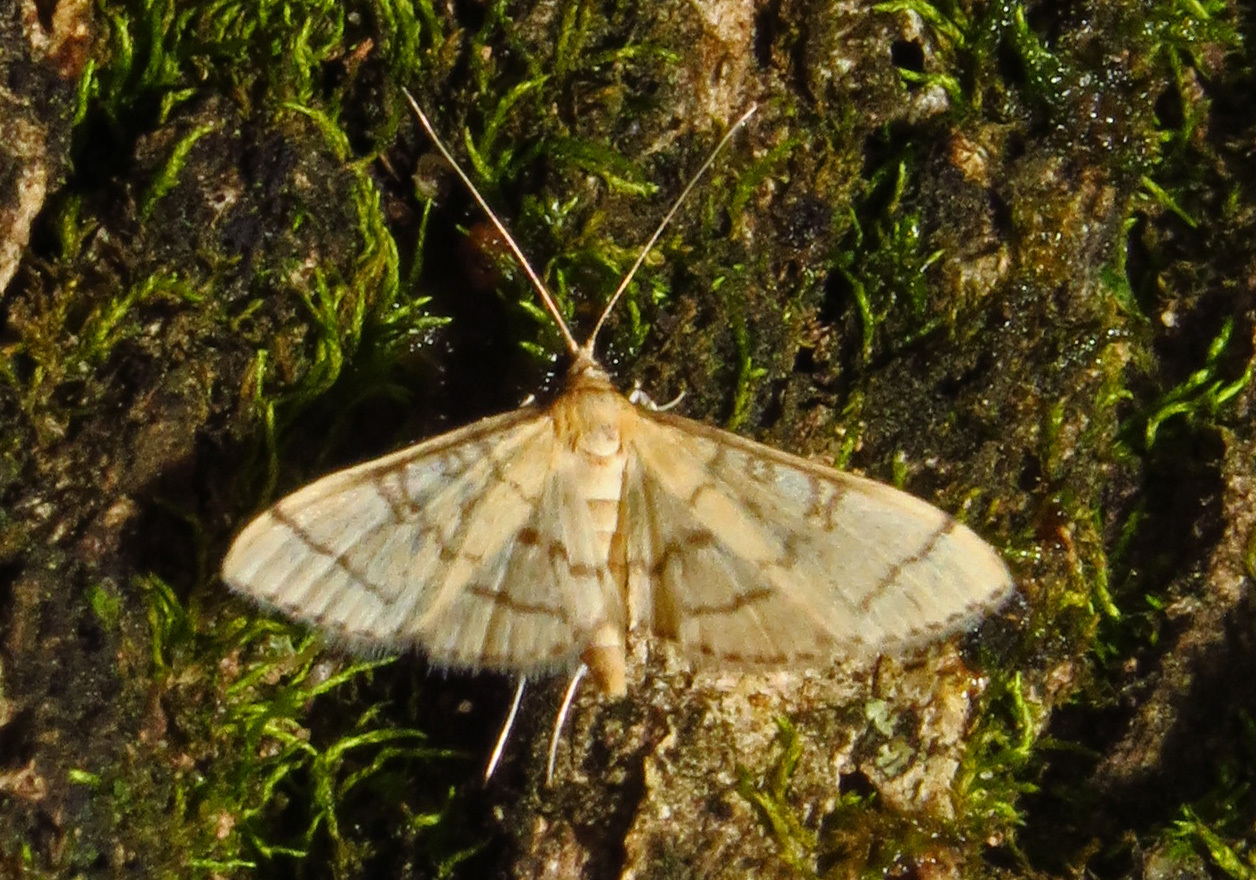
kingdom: Animalia
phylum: Arthropoda
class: Insecta
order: Lepidoptera
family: Crambidae
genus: Lamprosema
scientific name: Lamprosema Blepharomastix ranalis
